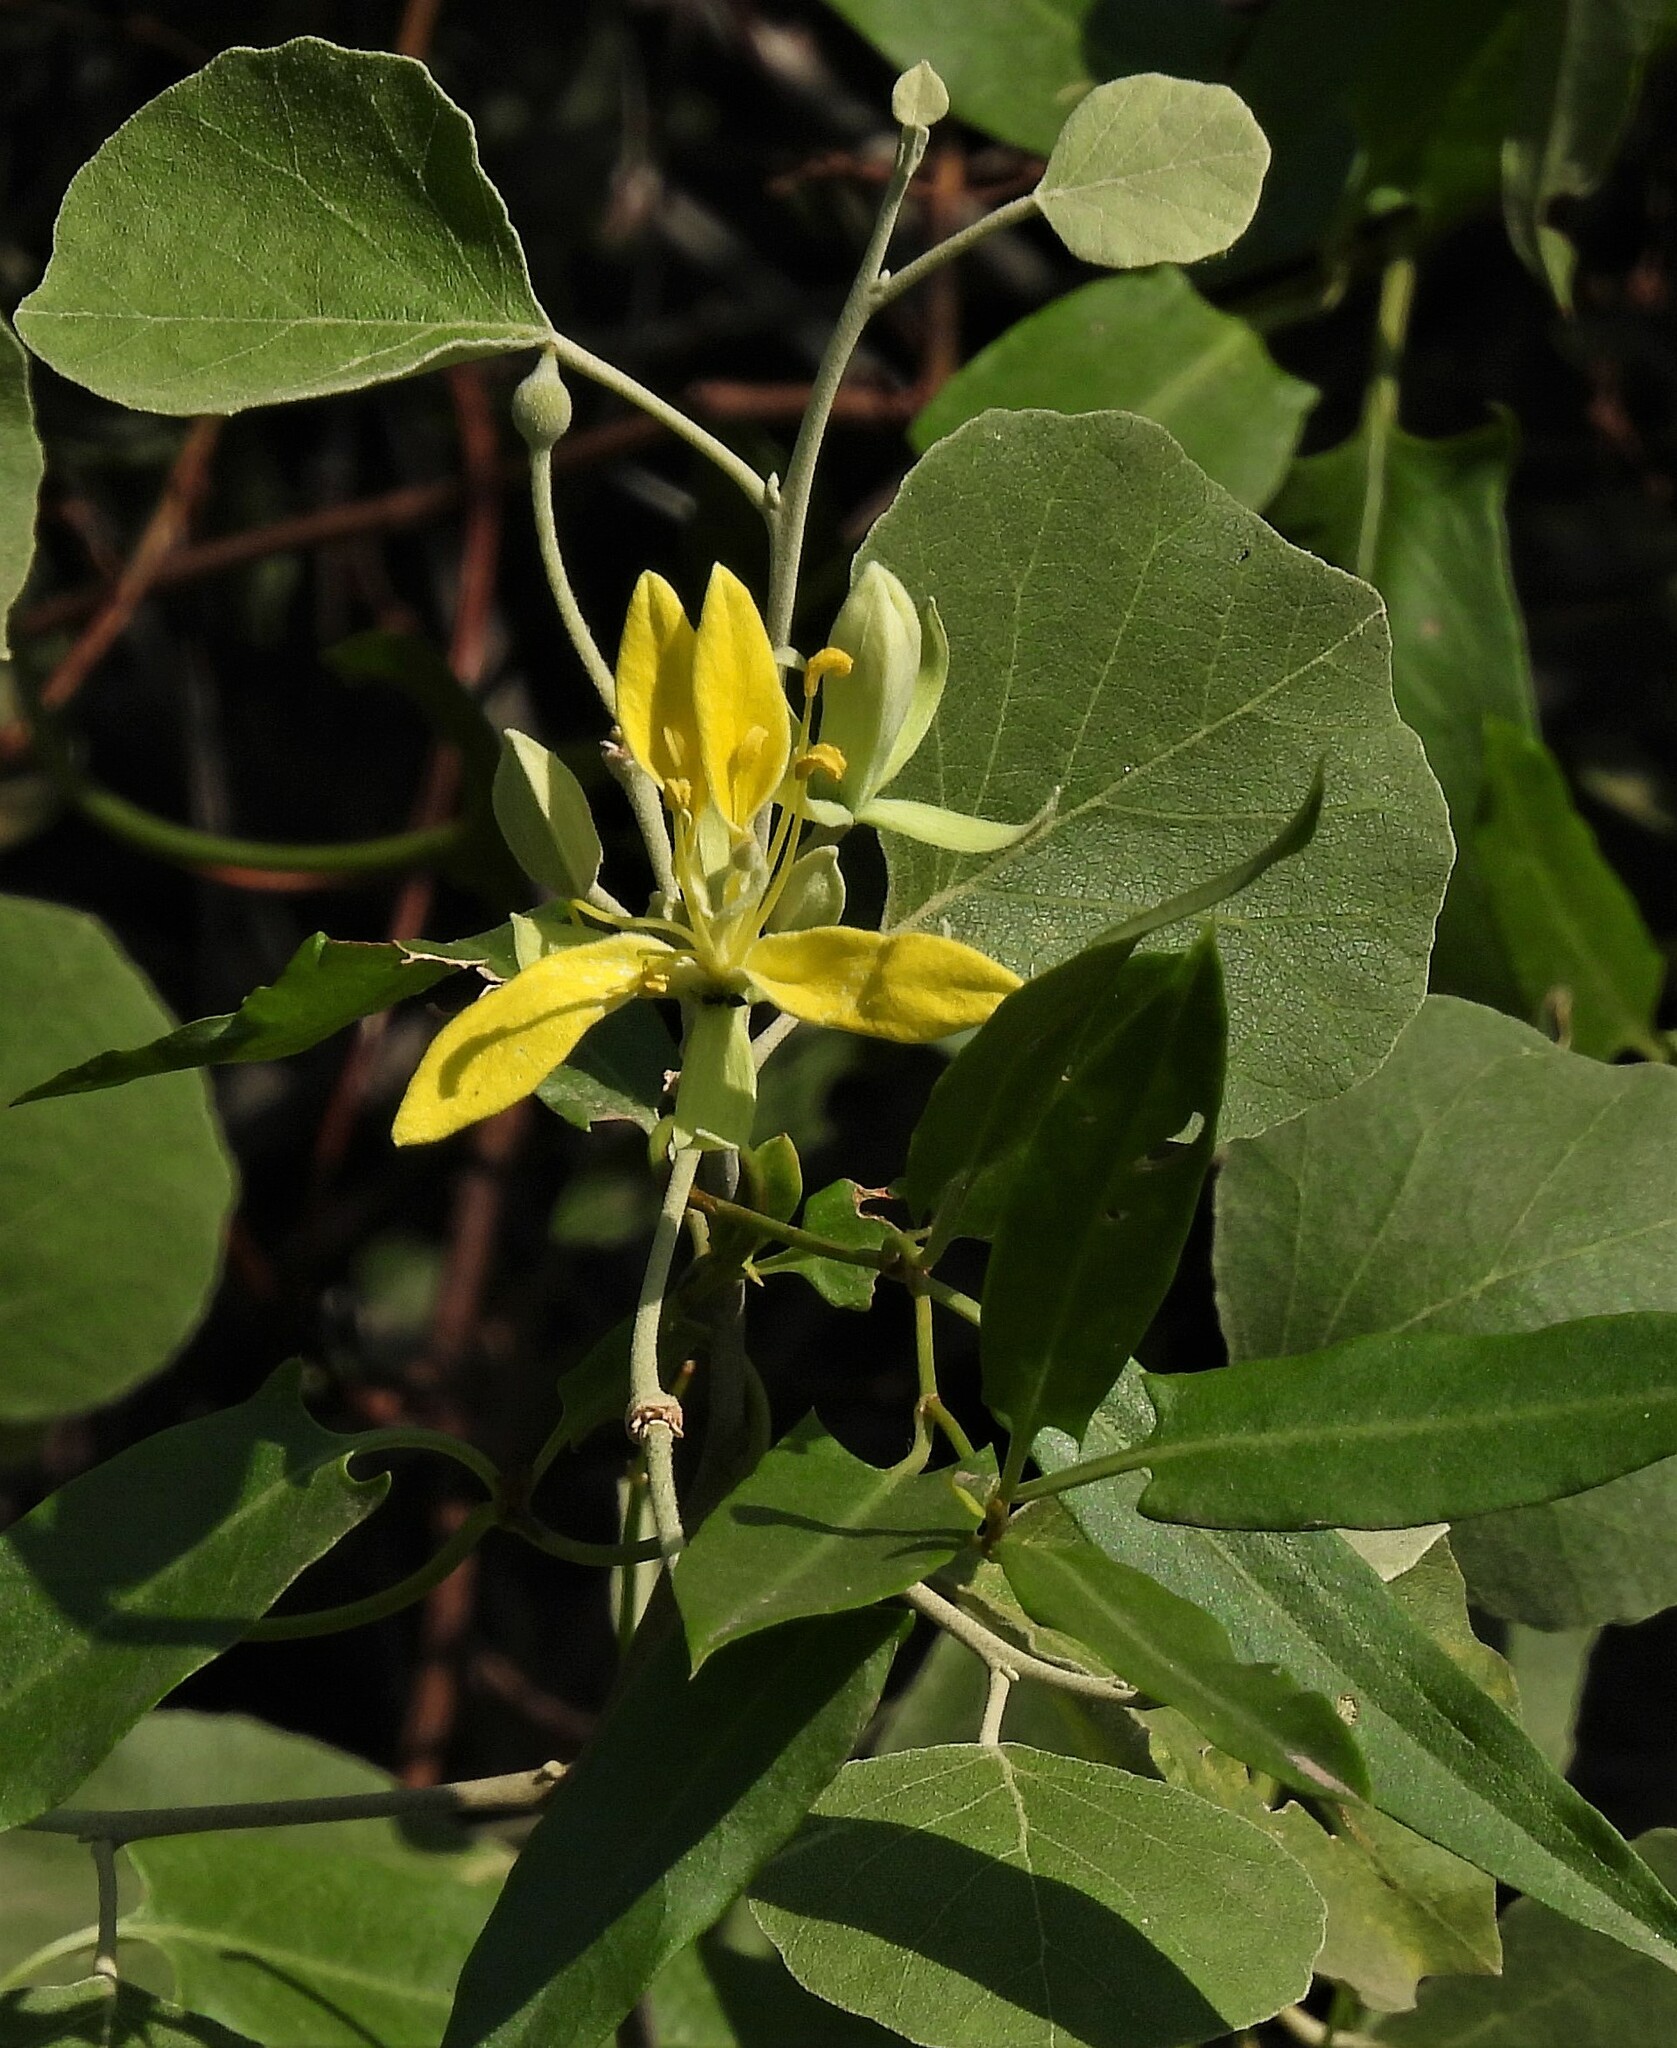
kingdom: Plantae
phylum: Tracheophyta
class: Magnoliopsida
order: Brassicales
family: Capparaceae
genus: Capparicordis
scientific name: Capparicordis tweedieana
